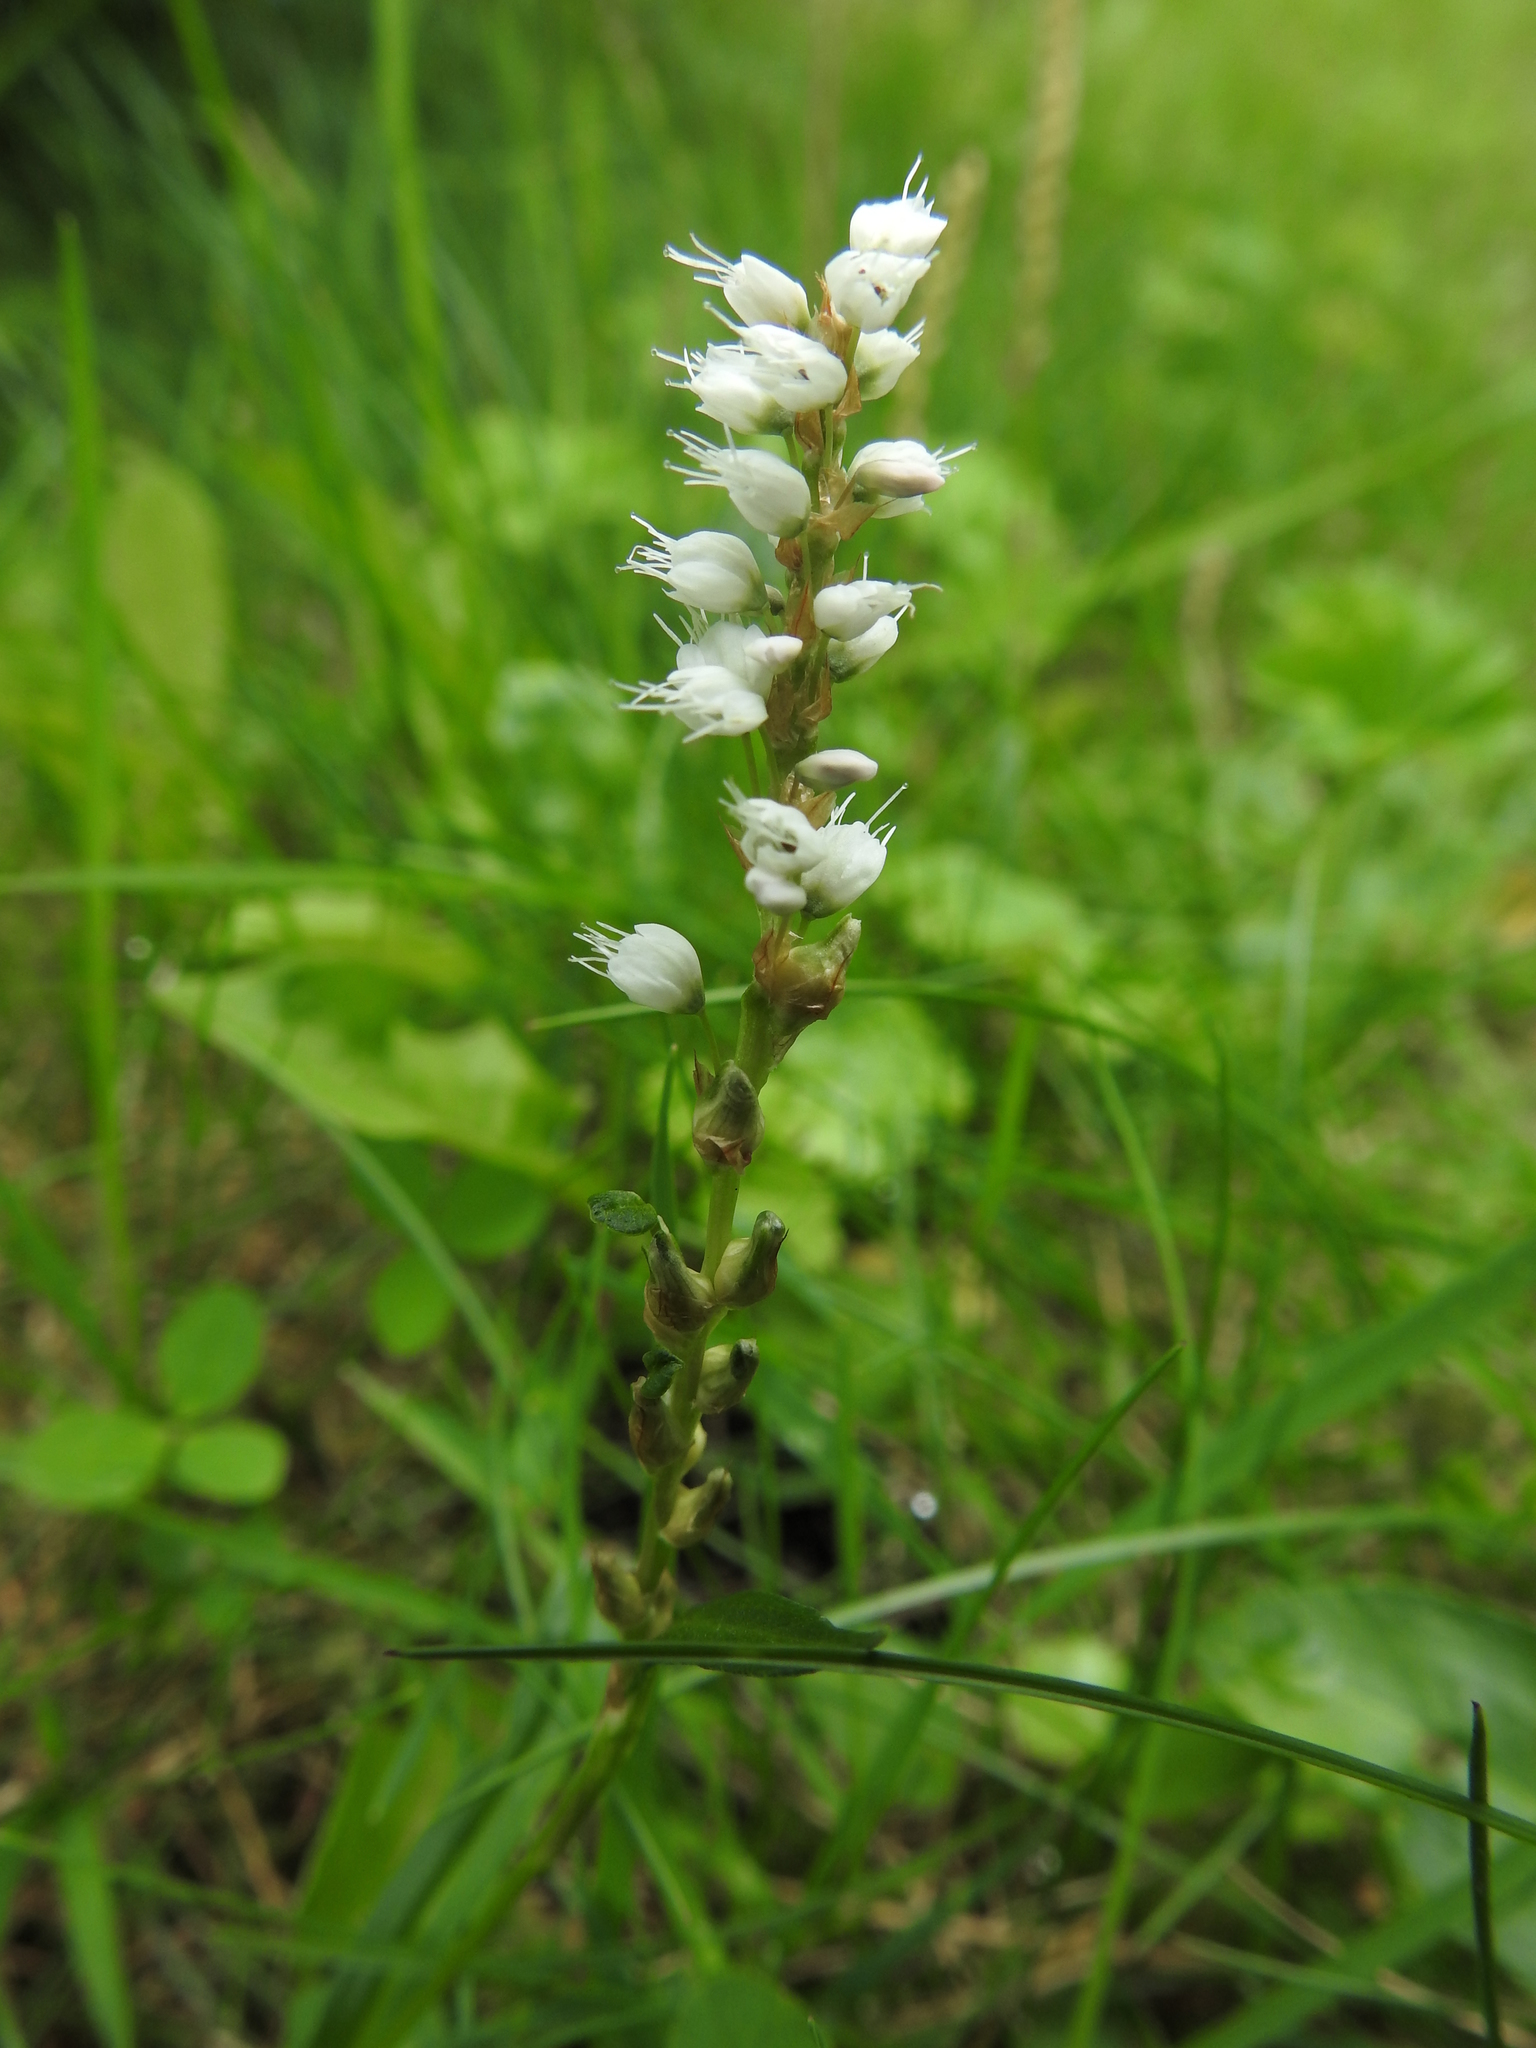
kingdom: Plantae
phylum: Tracheophyta
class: Magnoliopsida
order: Caryophyllales
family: Polygonaceae
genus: Bistorta
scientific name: Bistorta vivipara
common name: Alpine bistort
